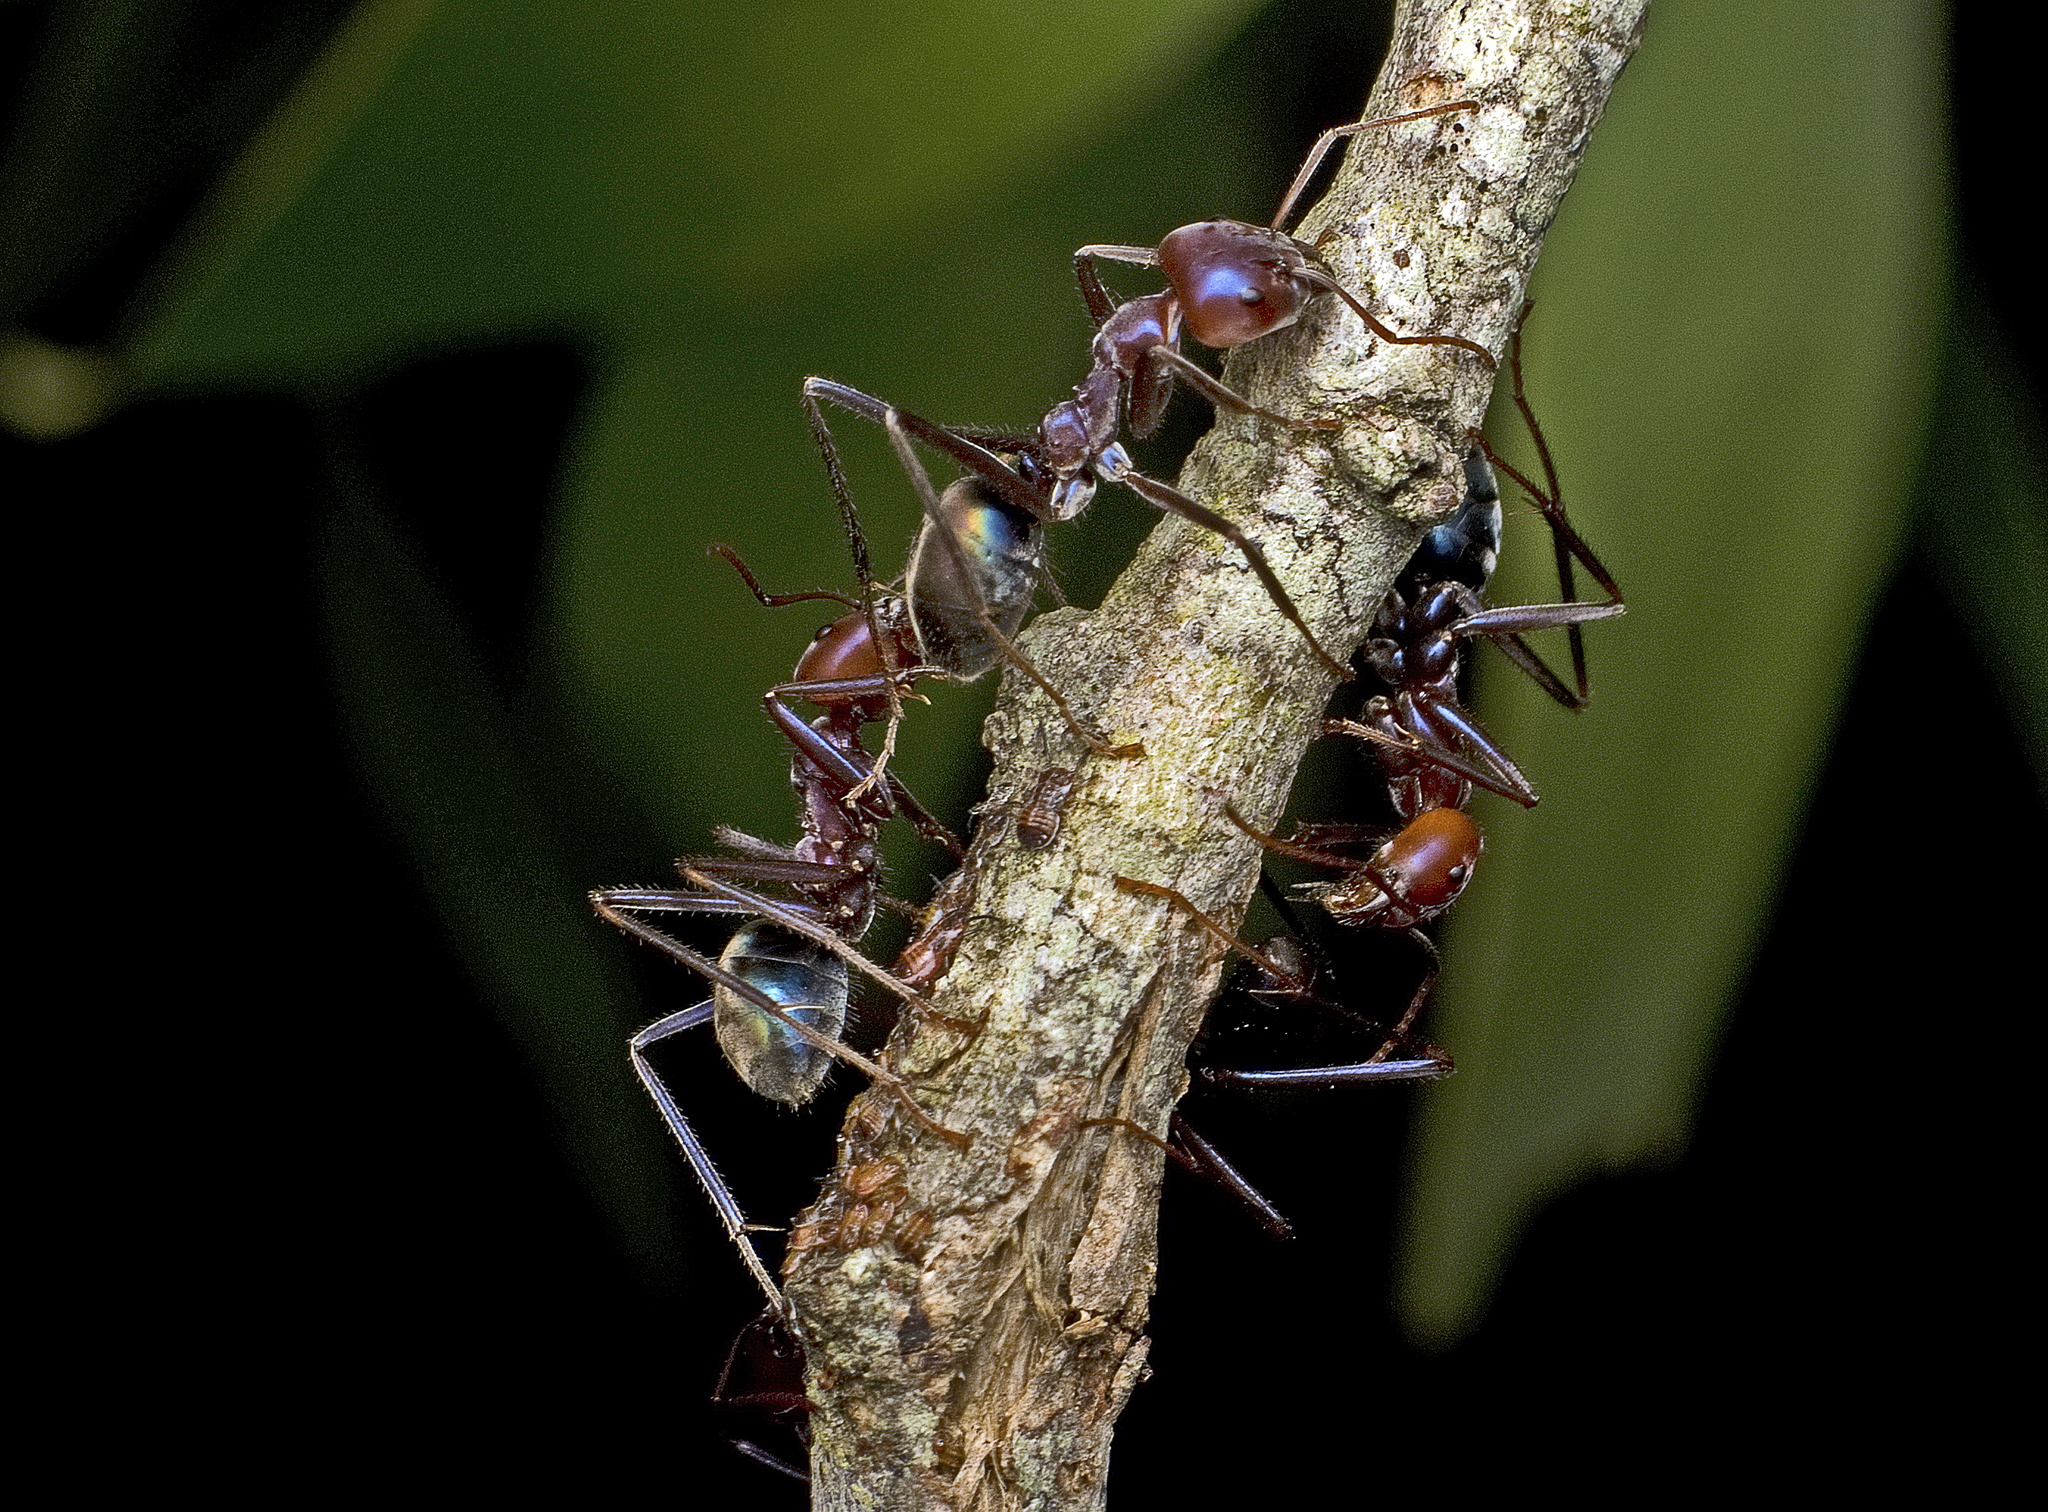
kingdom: Animalia
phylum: Arthropoda
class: Insecta
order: Hymenoptera
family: Formicidae
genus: Iridomyrmex
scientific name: Iridomyrmex purpureus
